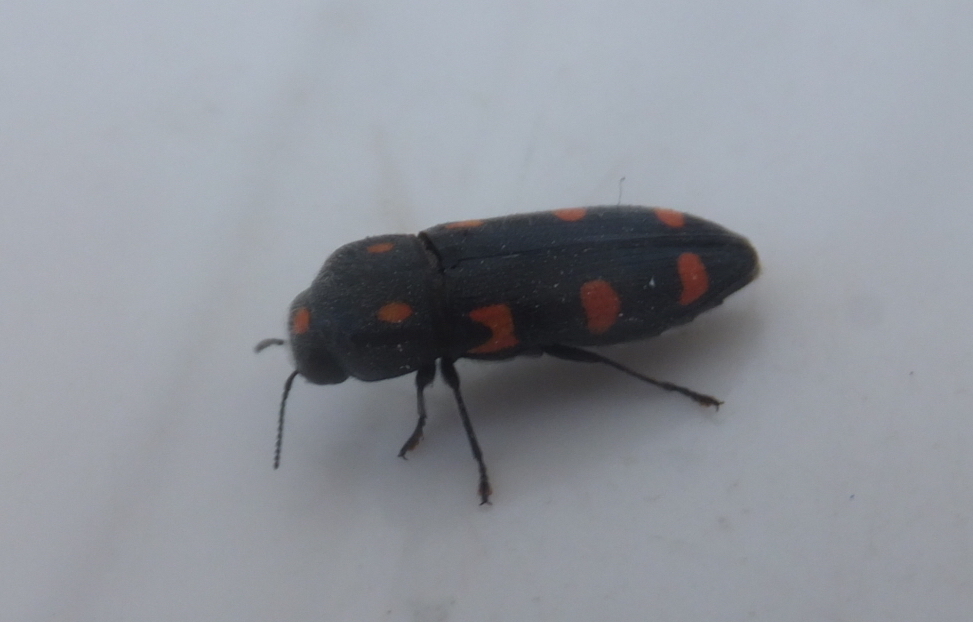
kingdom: Animalia
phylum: Arthropoda
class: Insecta
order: Coleoptera
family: Buprestidae
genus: Ptosima
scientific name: Ptosima undecimmaculata
